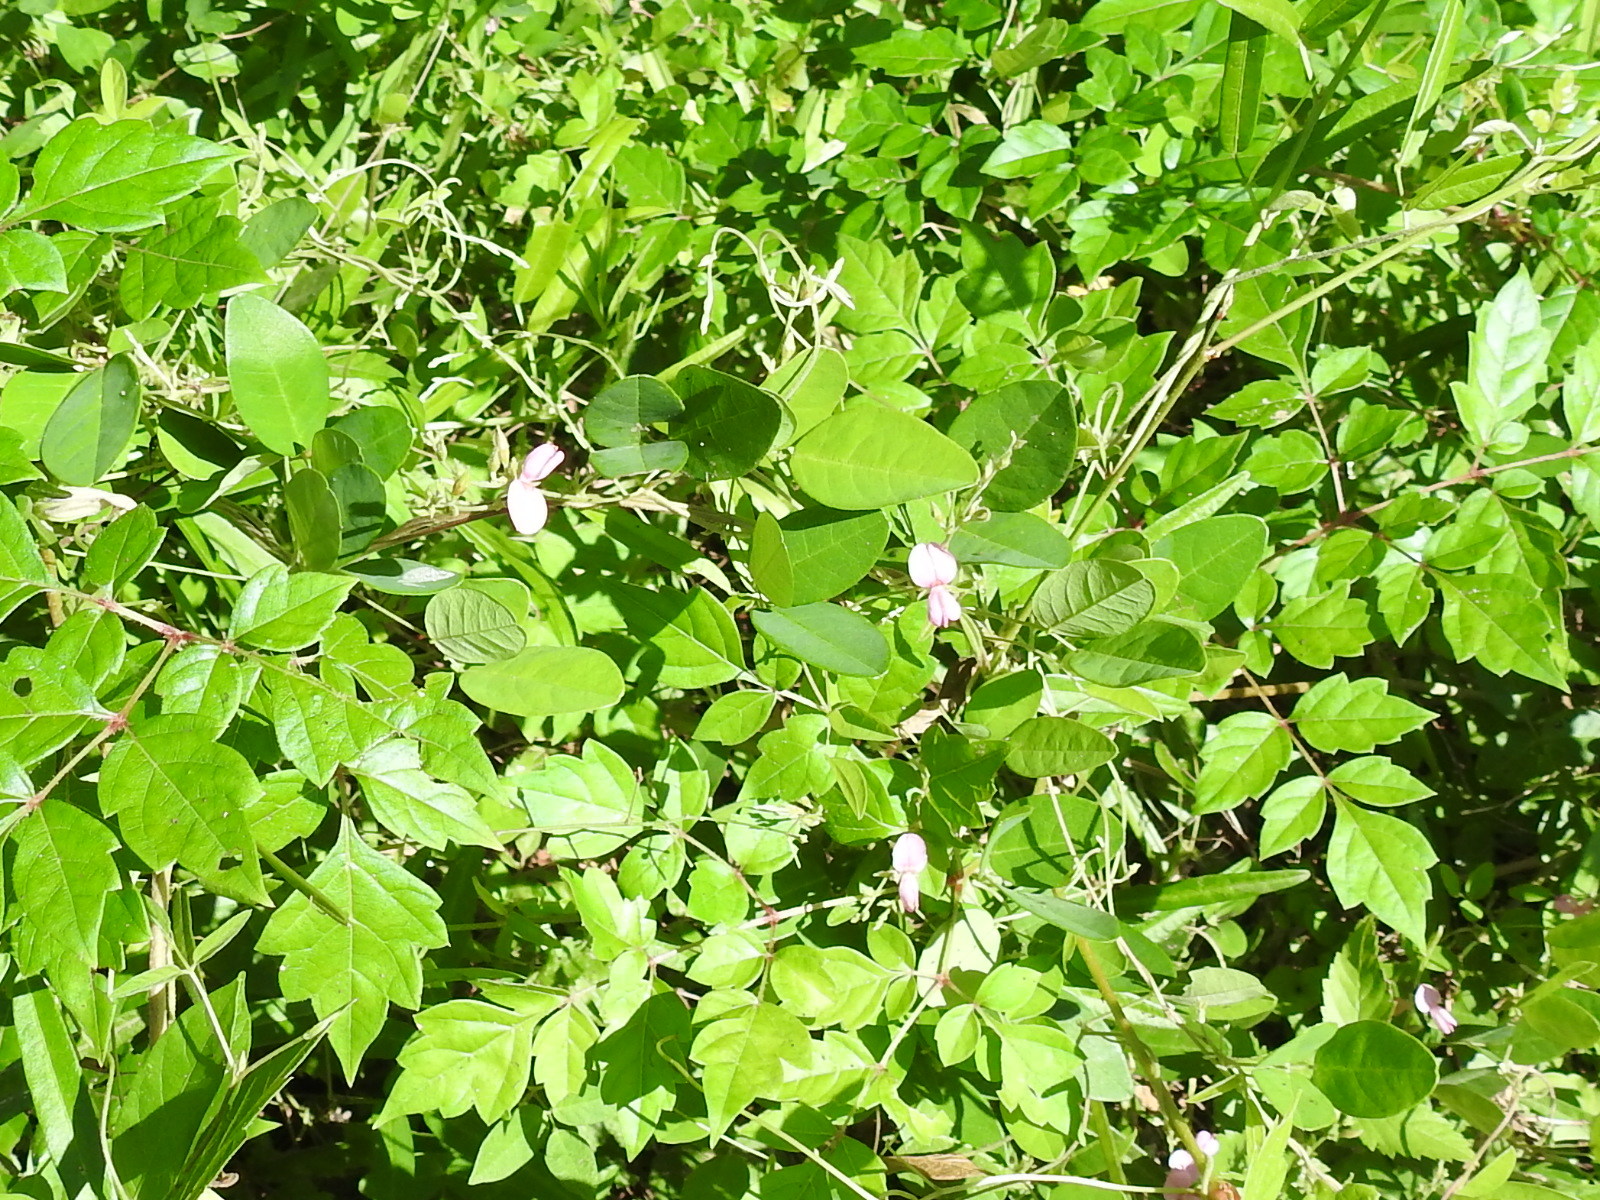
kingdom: Plantae
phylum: Tracheophyta
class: Magnoliopsida
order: Fabales
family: Fabaceae
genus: Galactia
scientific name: Galactia regularis
